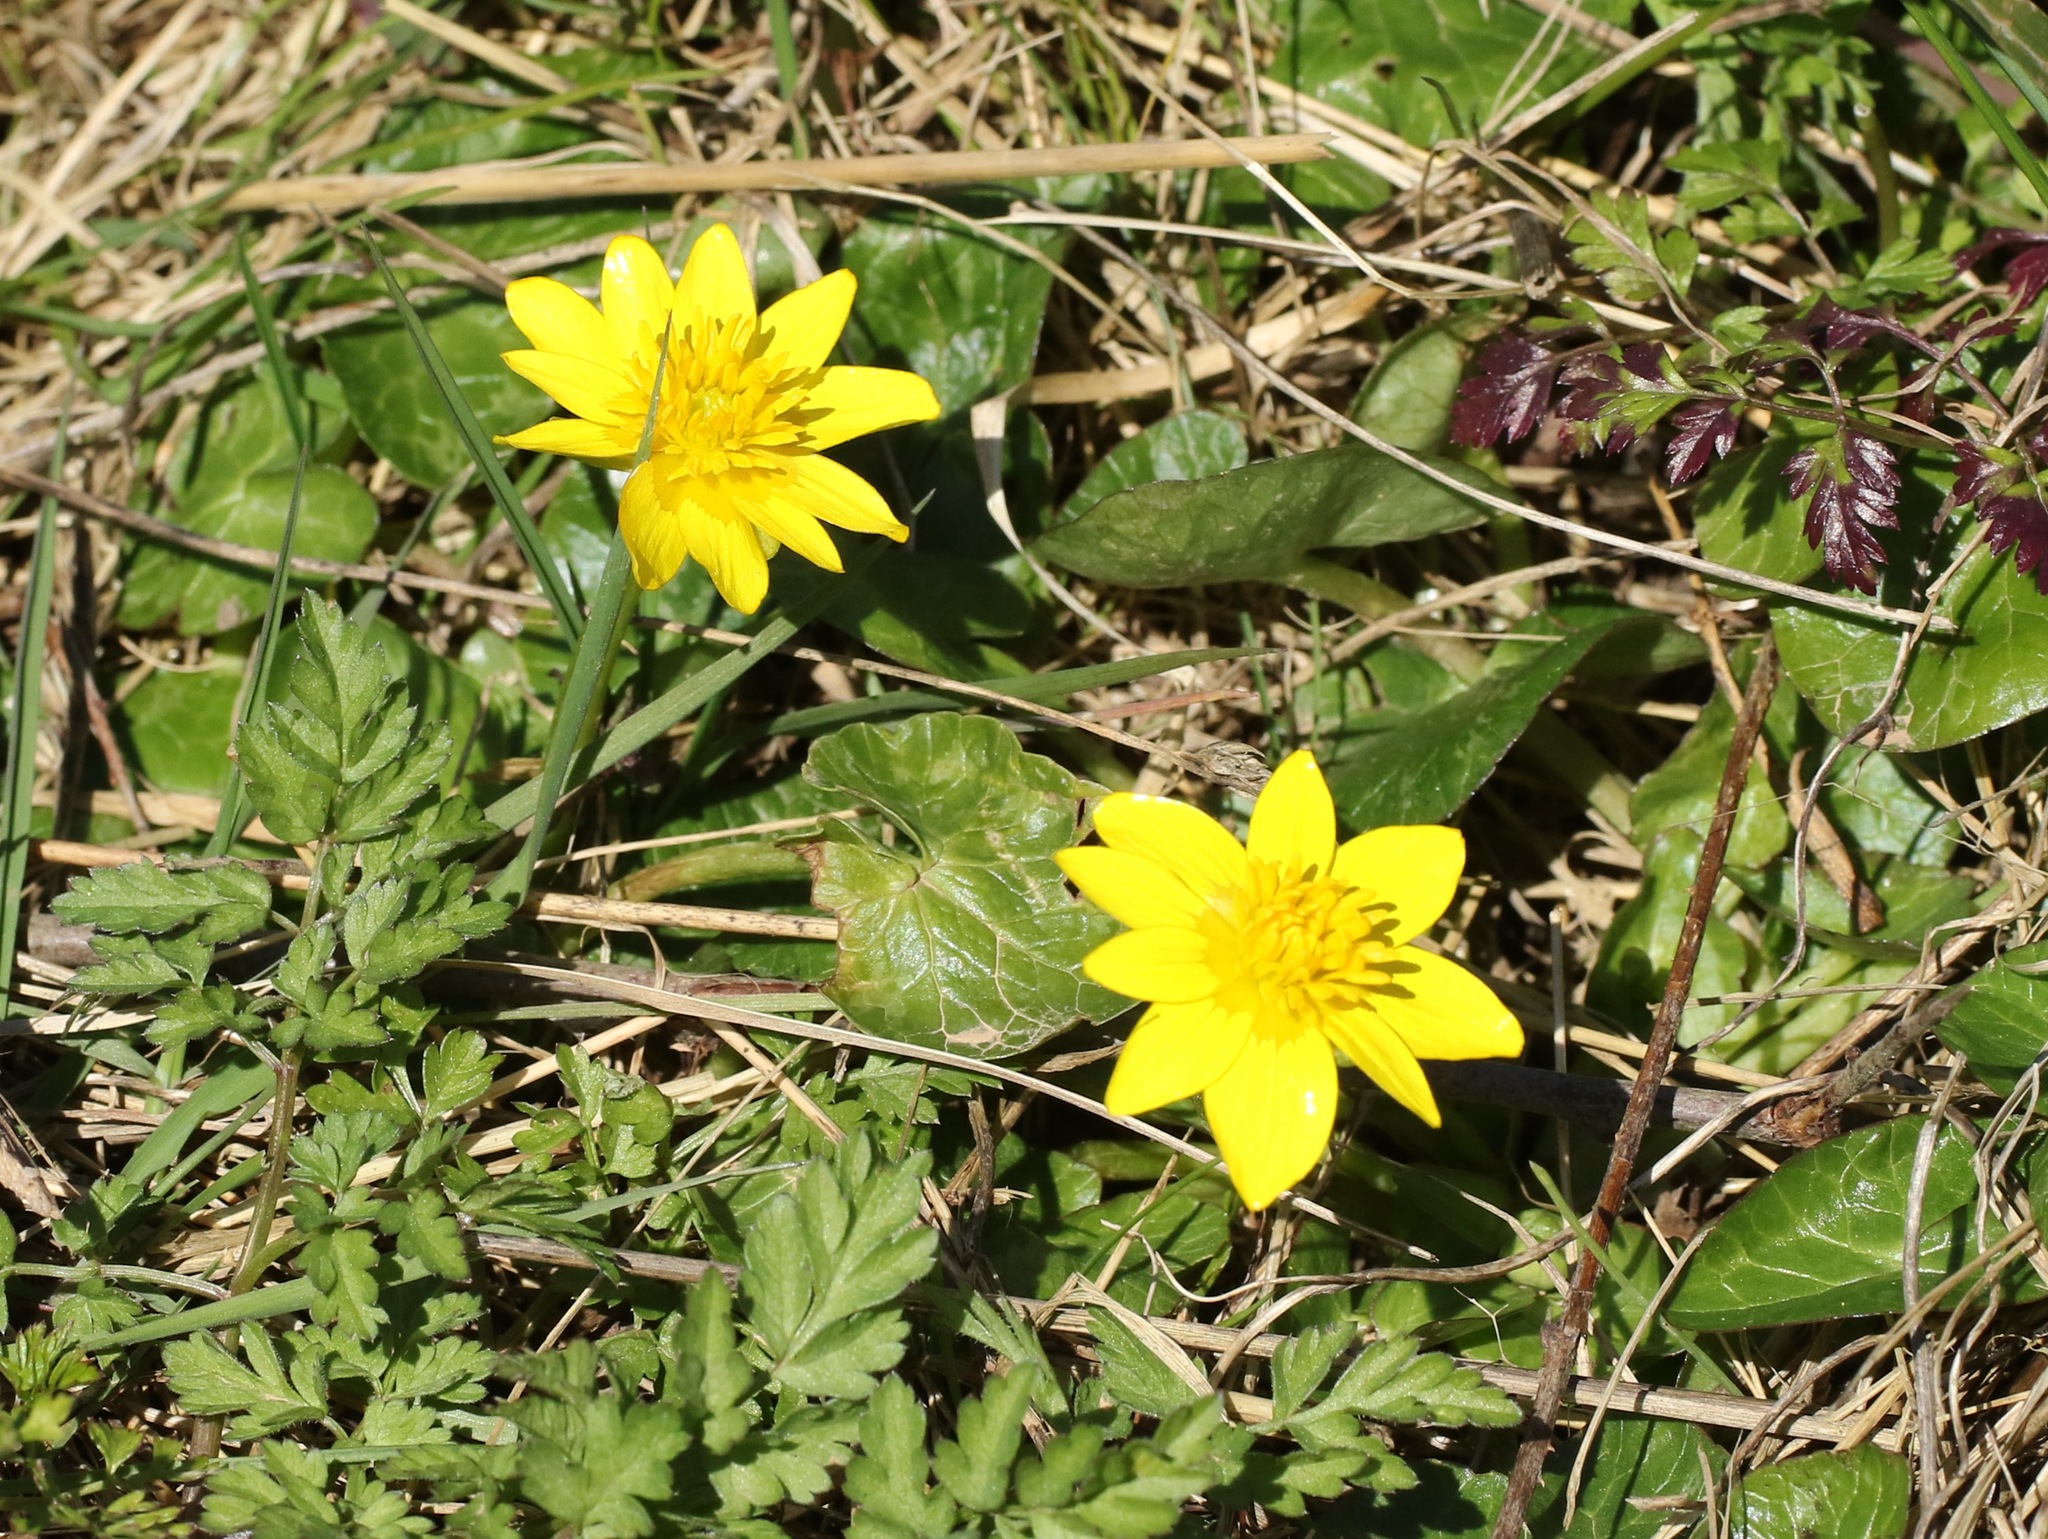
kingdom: Plantae
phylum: Tracheophyta
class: Magnoliopsida
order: Ranunculales
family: Ranunculaceae
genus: Ficaria
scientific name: Ficaria verna
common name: Lesser celandine
